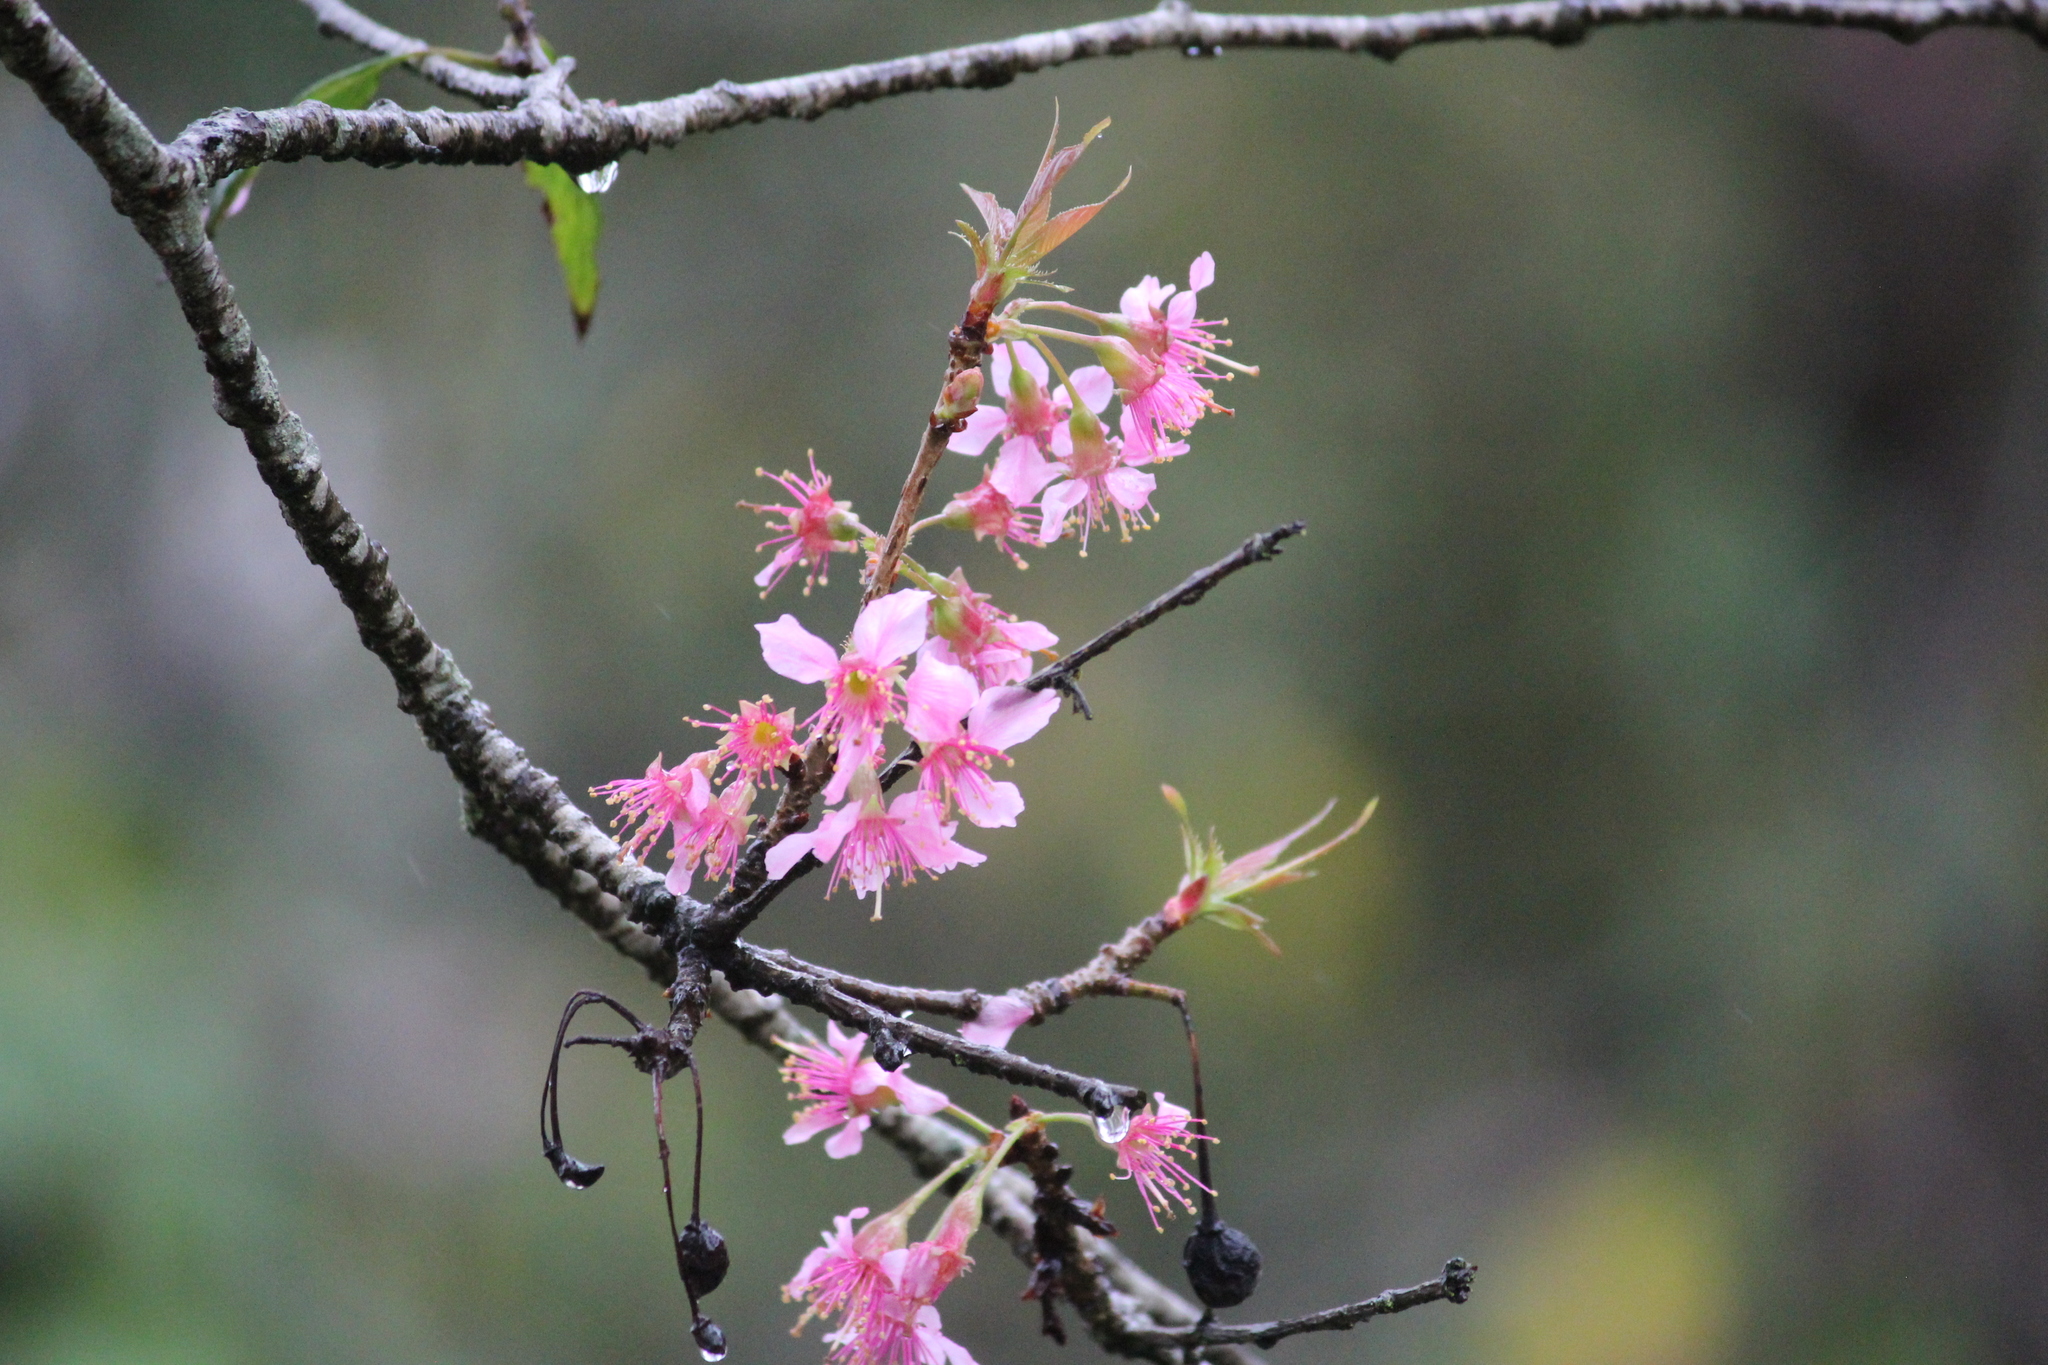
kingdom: Plantae
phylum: Tracheophyta
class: Magnoliopsida
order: Rosales
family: Rosaceae
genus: Prunus
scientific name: Prunus cerasoides
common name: Wild himalayan cherry
